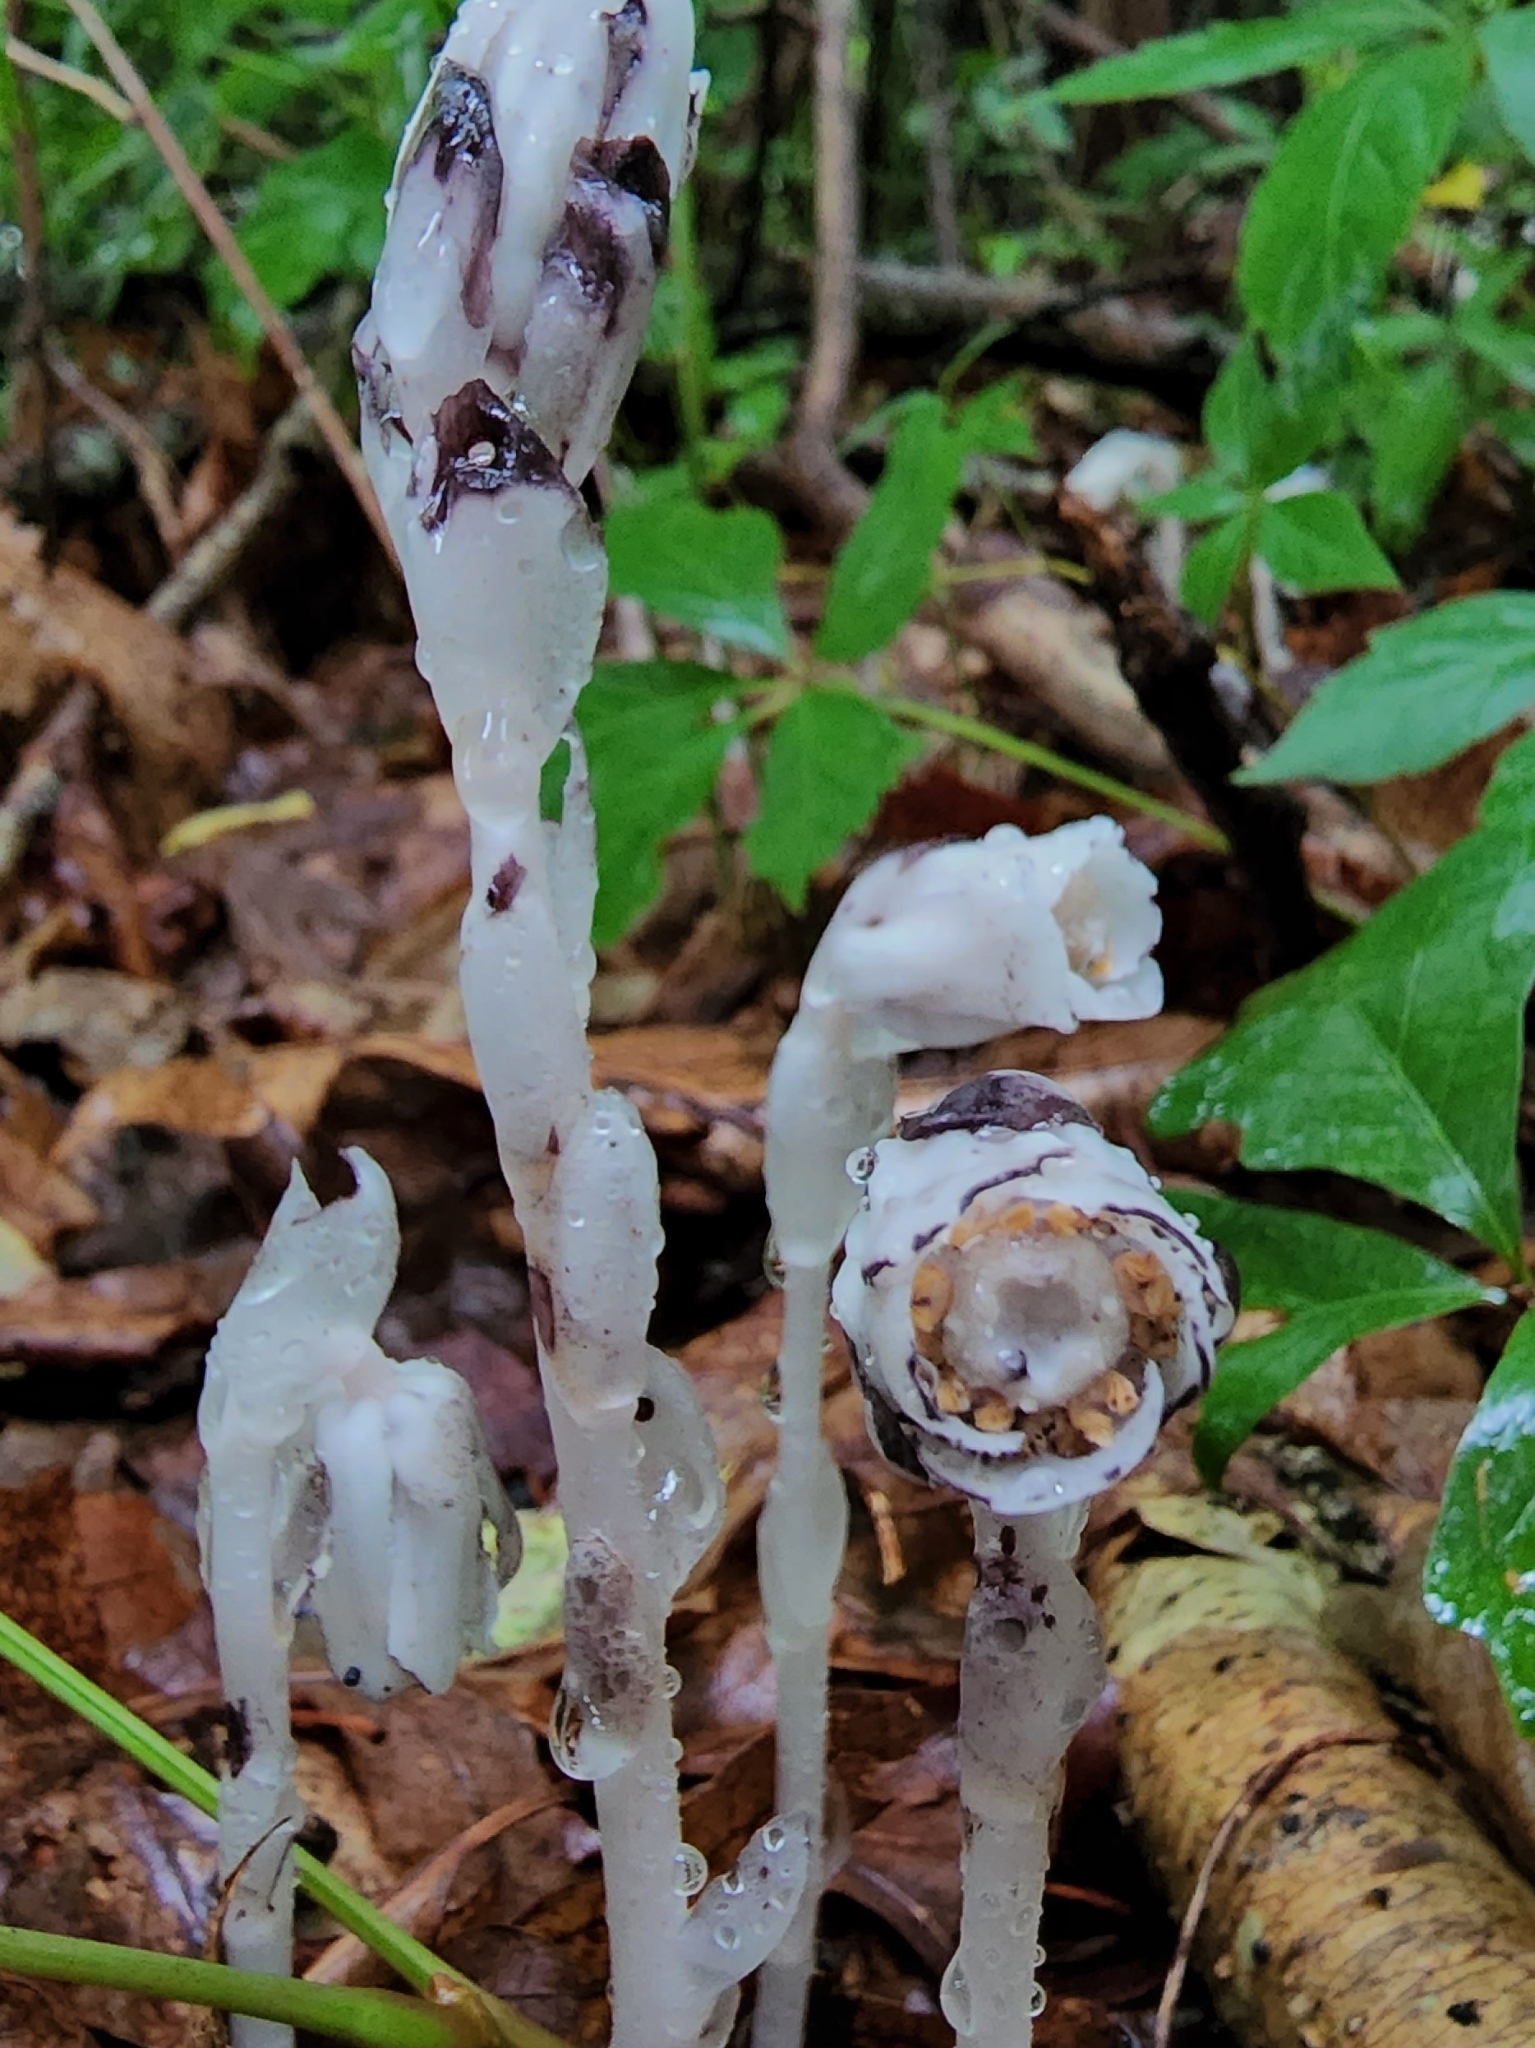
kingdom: Plantae
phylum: Tracheophyta
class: Magnoliopsida
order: Ericales
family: Ericaceae
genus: Monotropa
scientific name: Monotropa uniflora
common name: Convulsion root
